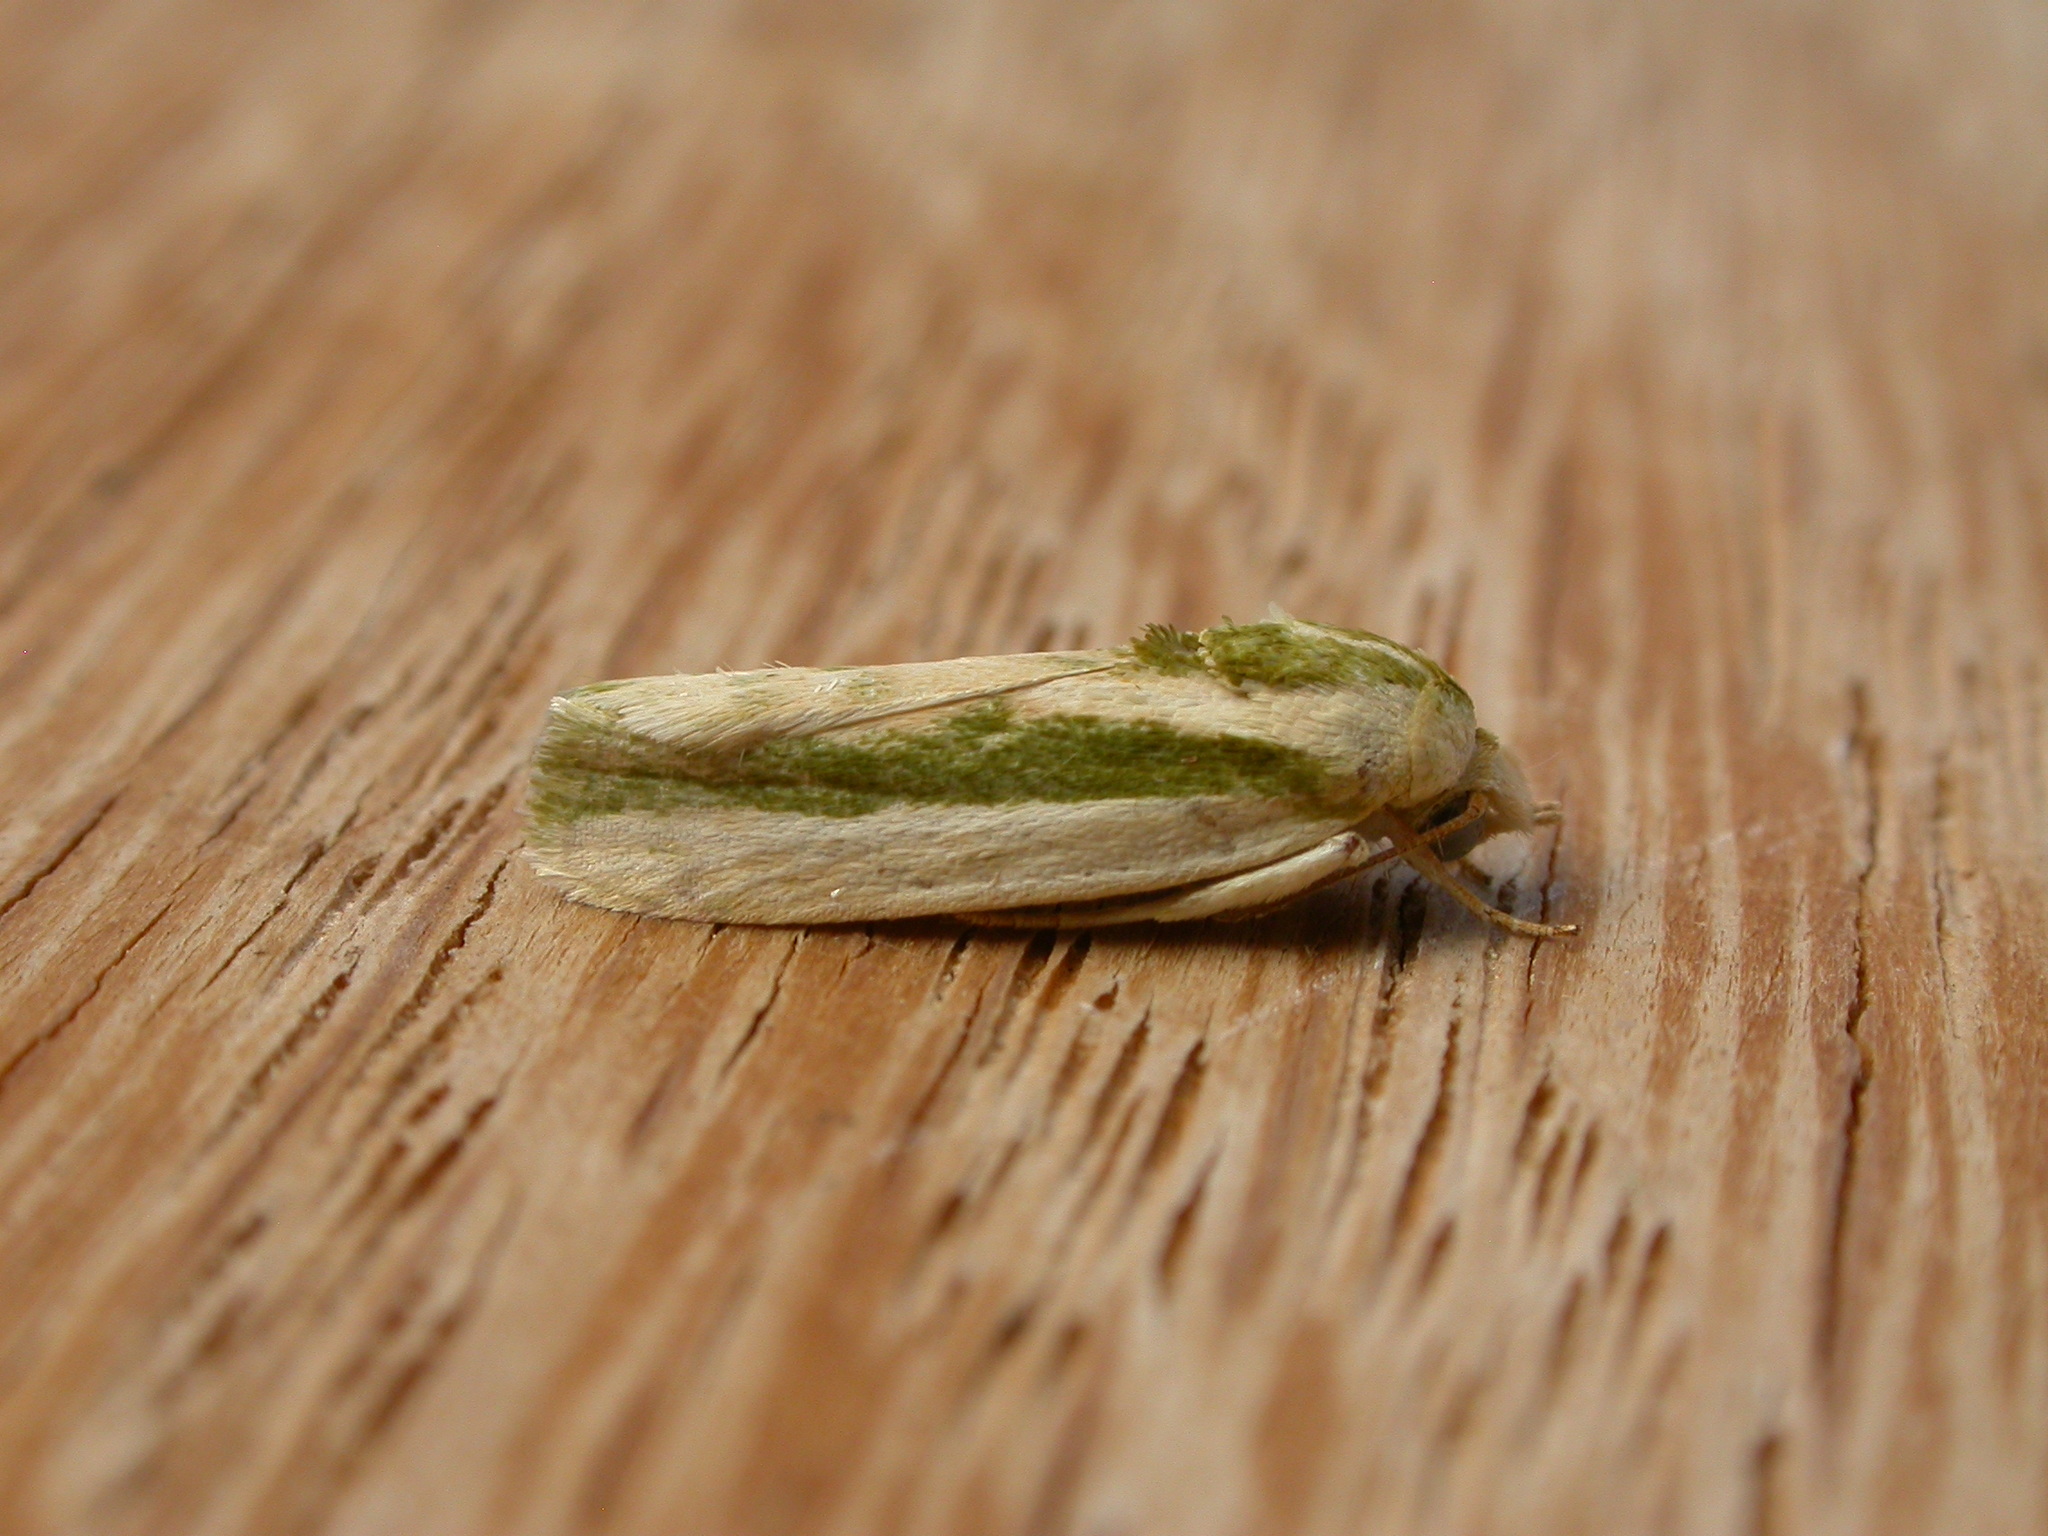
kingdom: Animalia
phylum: Arthropoda
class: Insecta
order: Lepidoptera
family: Nolidae
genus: Earias
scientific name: Earias huegeliana
